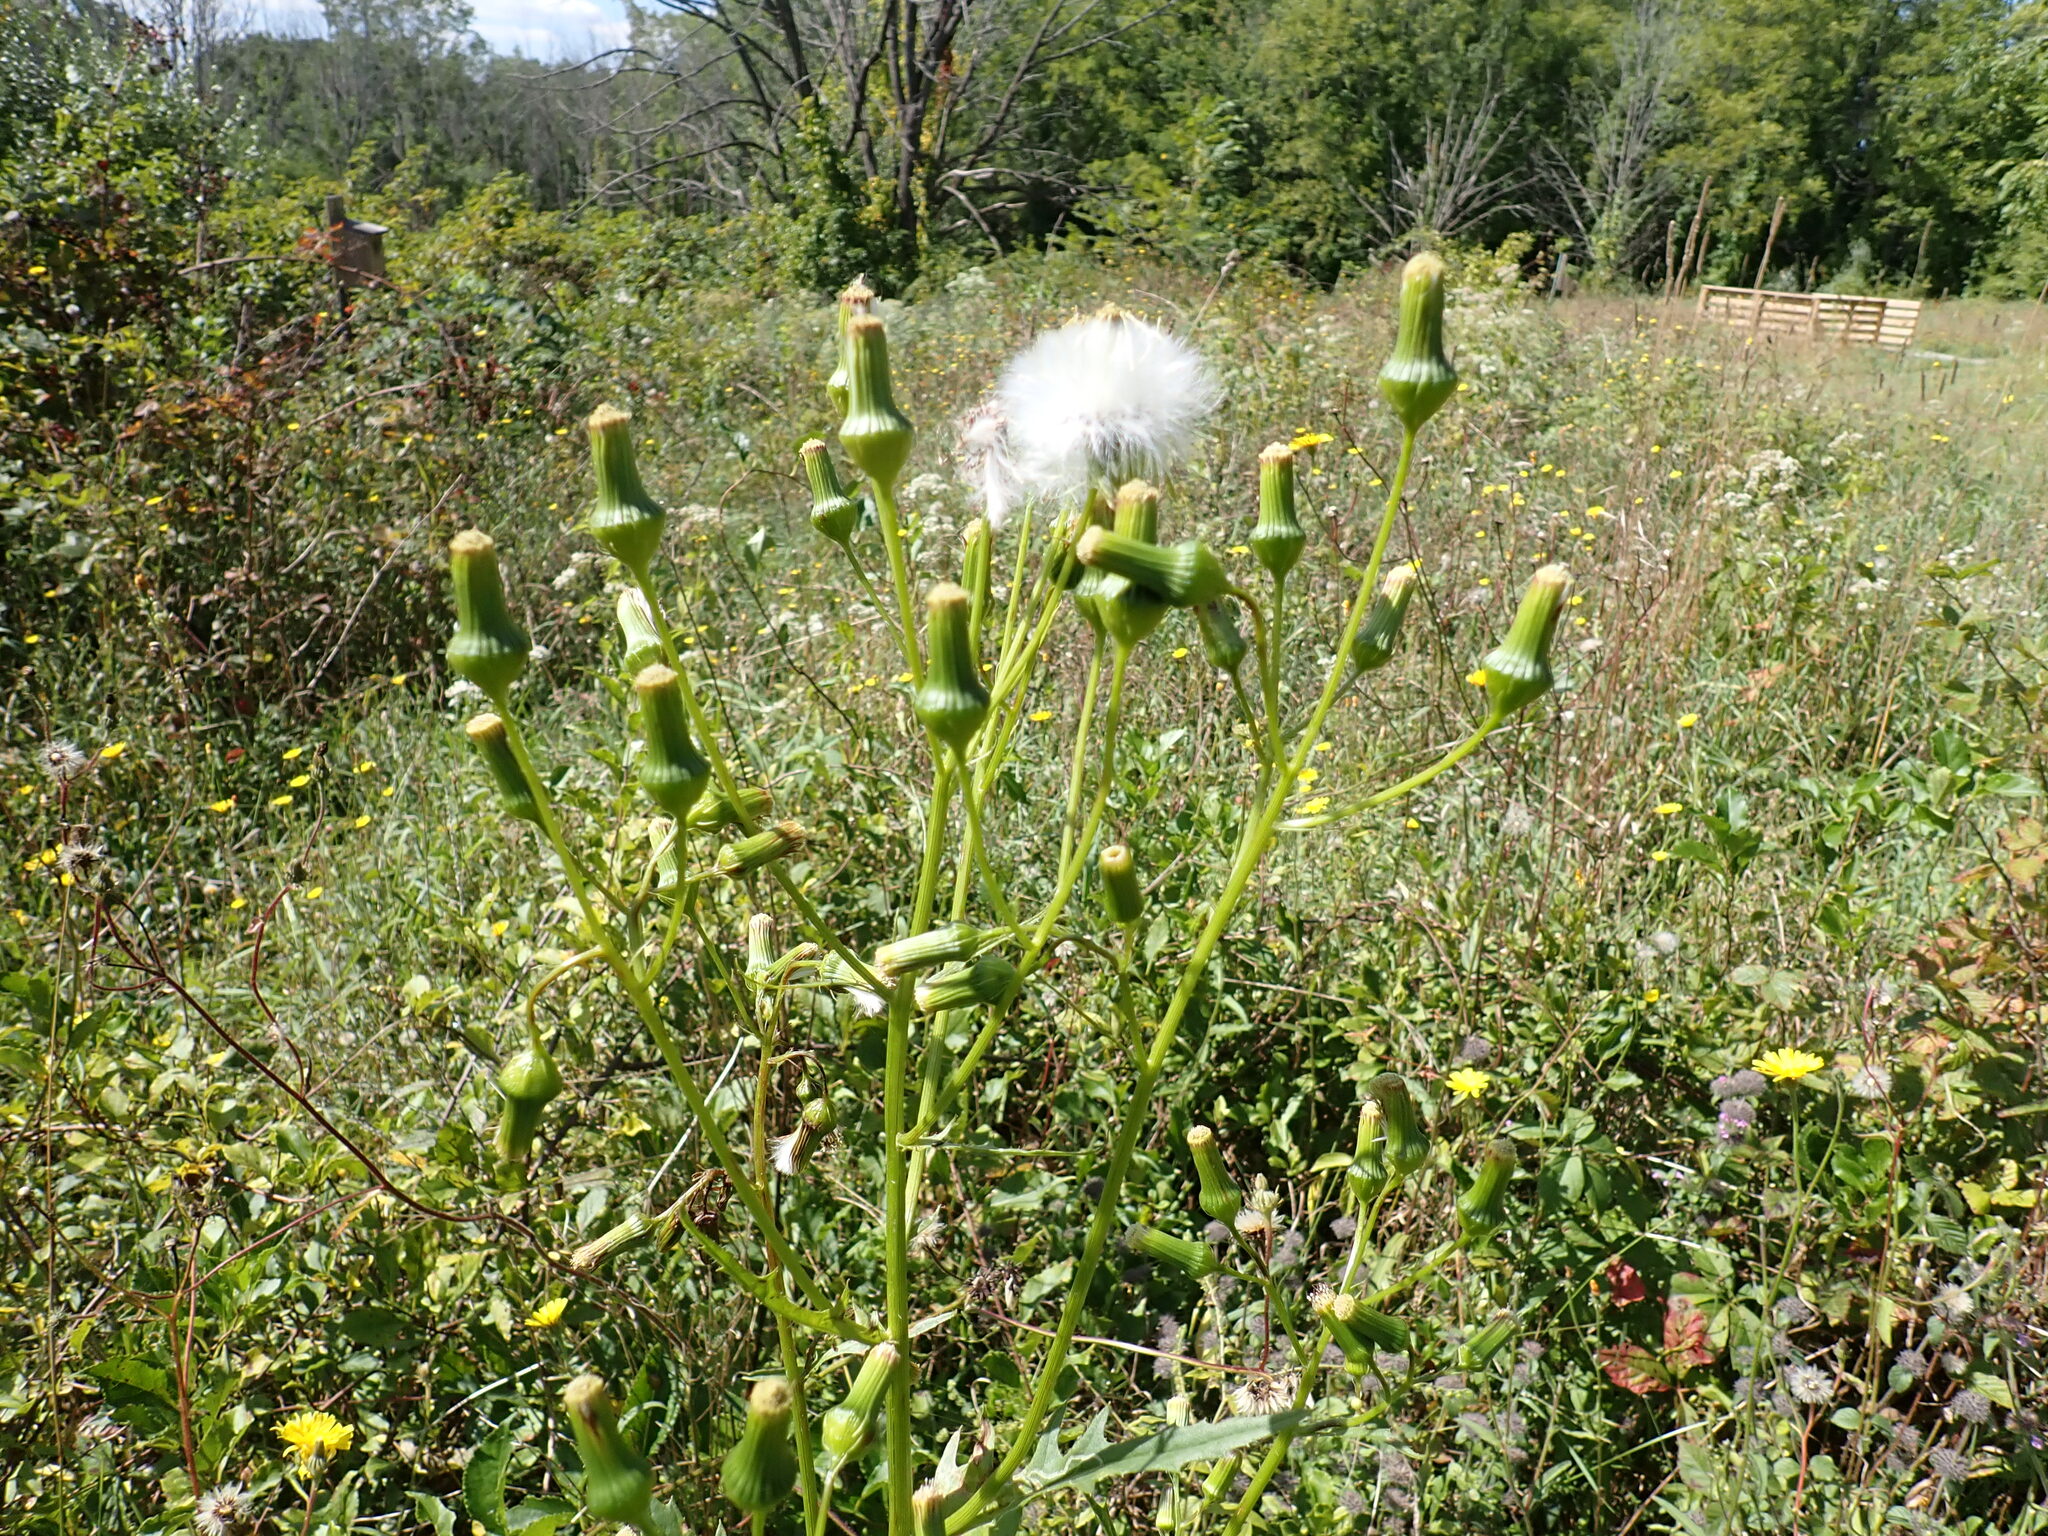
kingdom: Plantae
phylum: Tracheophyta
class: Magnoliopsida
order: Asterales
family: Asteraceae
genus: Erechtites
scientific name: Erechtites hieraciifolius
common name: American burnweed
